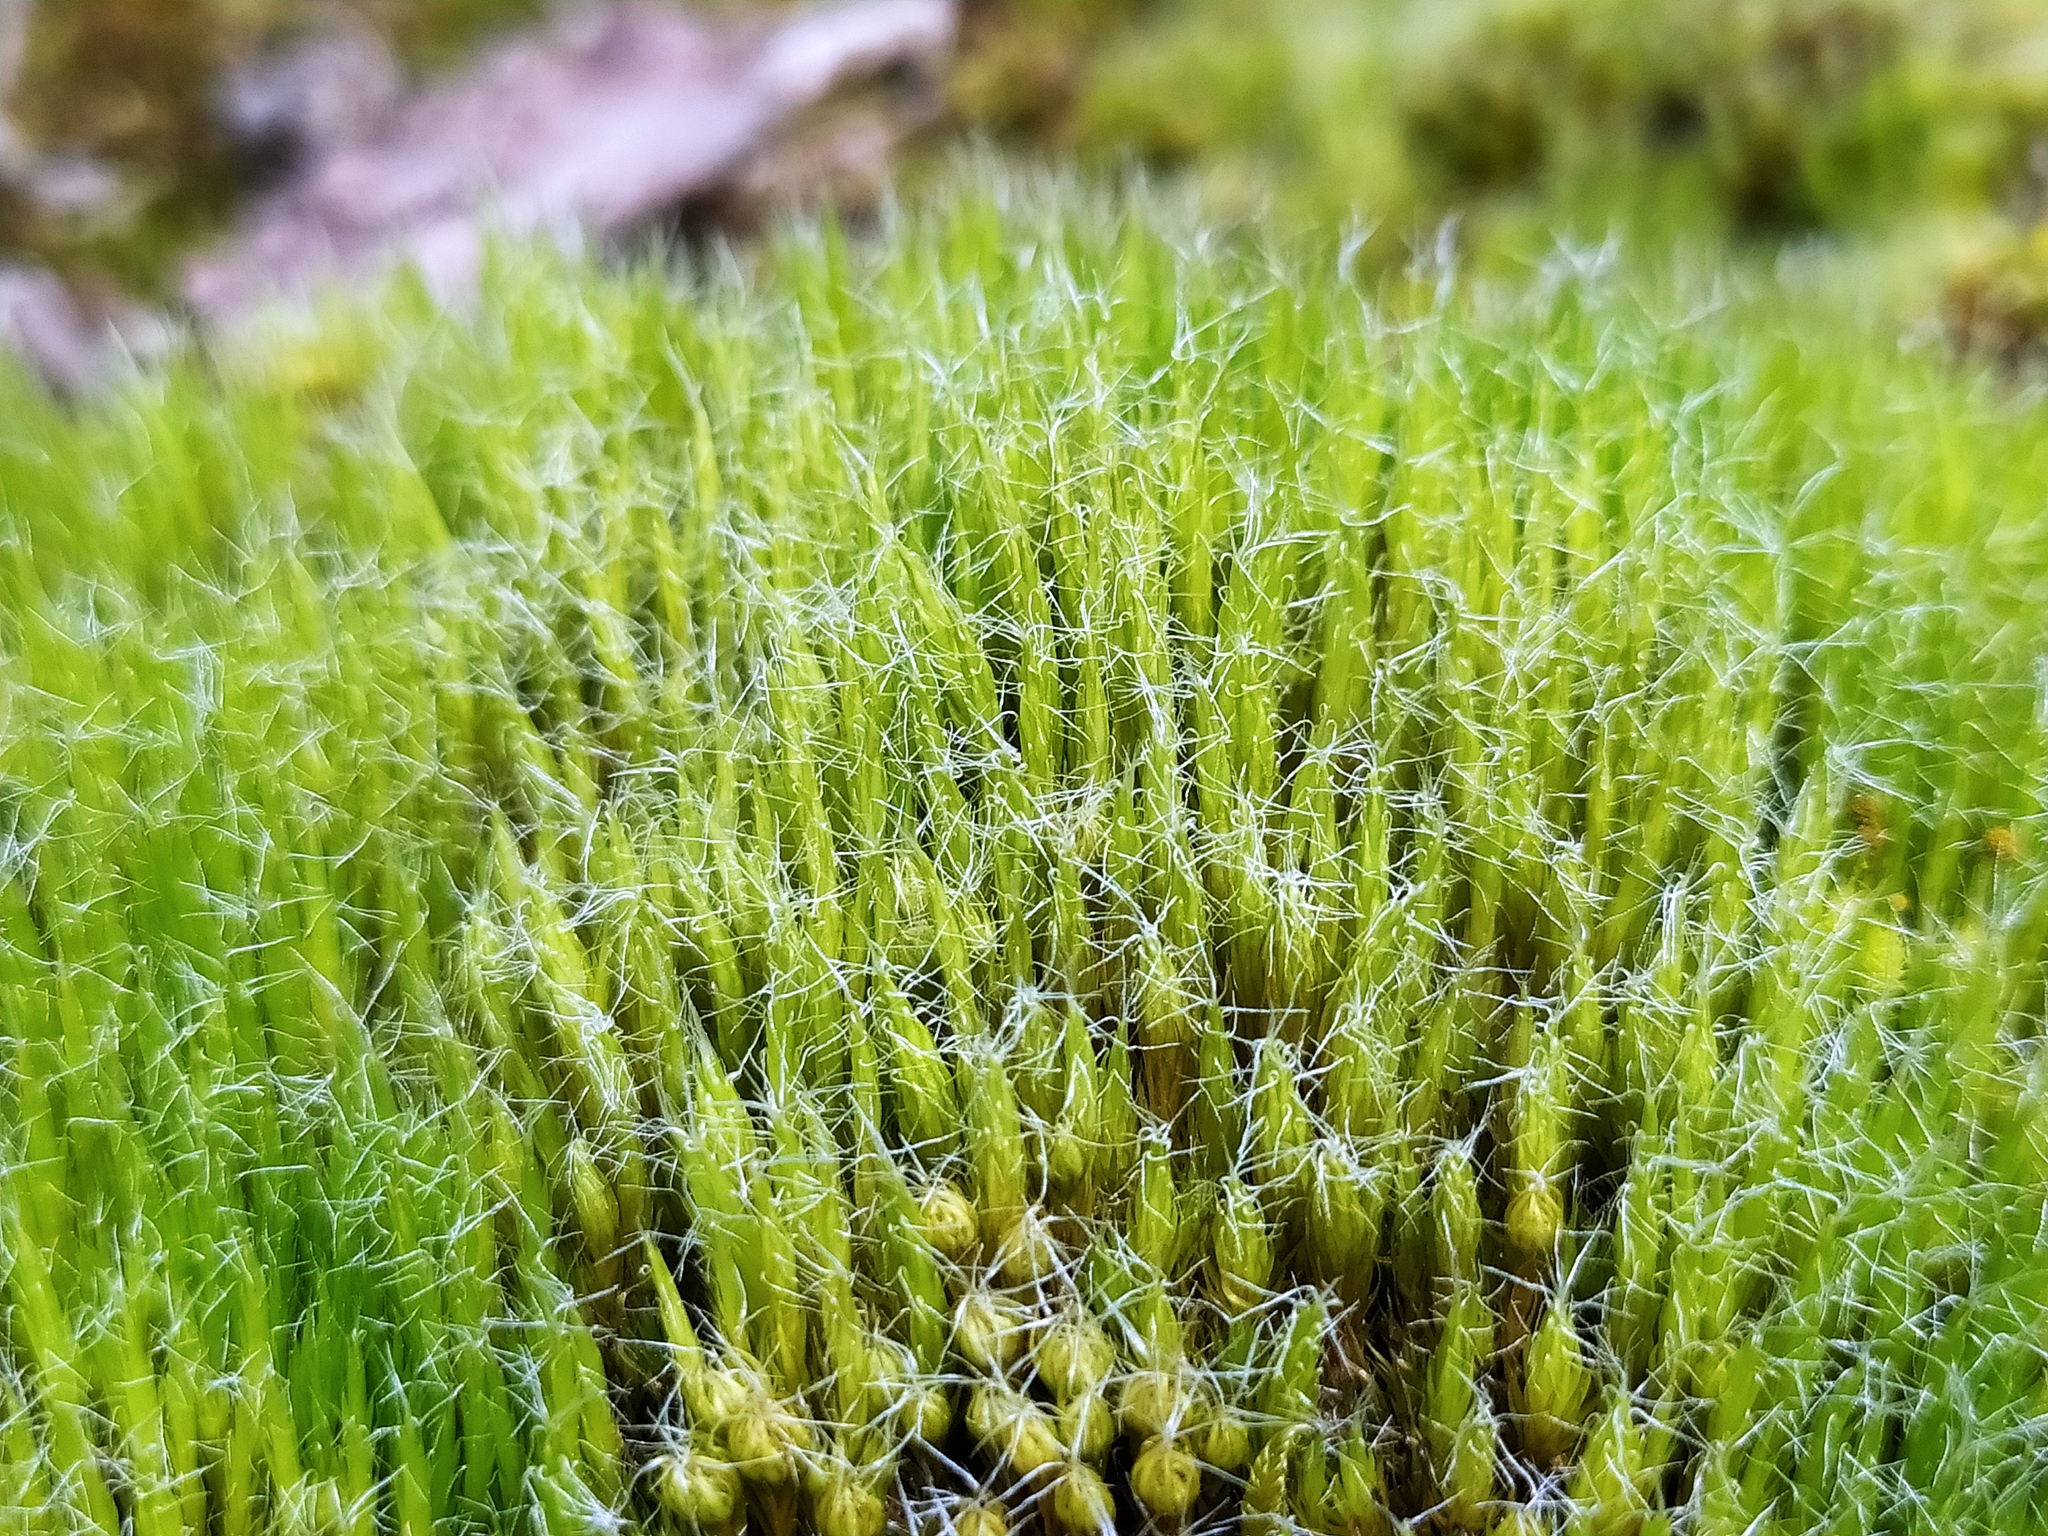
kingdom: Plantae
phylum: Bryophyta
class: Bryopsida
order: Dicranales
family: Leucobryaceae
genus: Campylopus
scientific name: Campylopus introflexus
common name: Heath star moss
